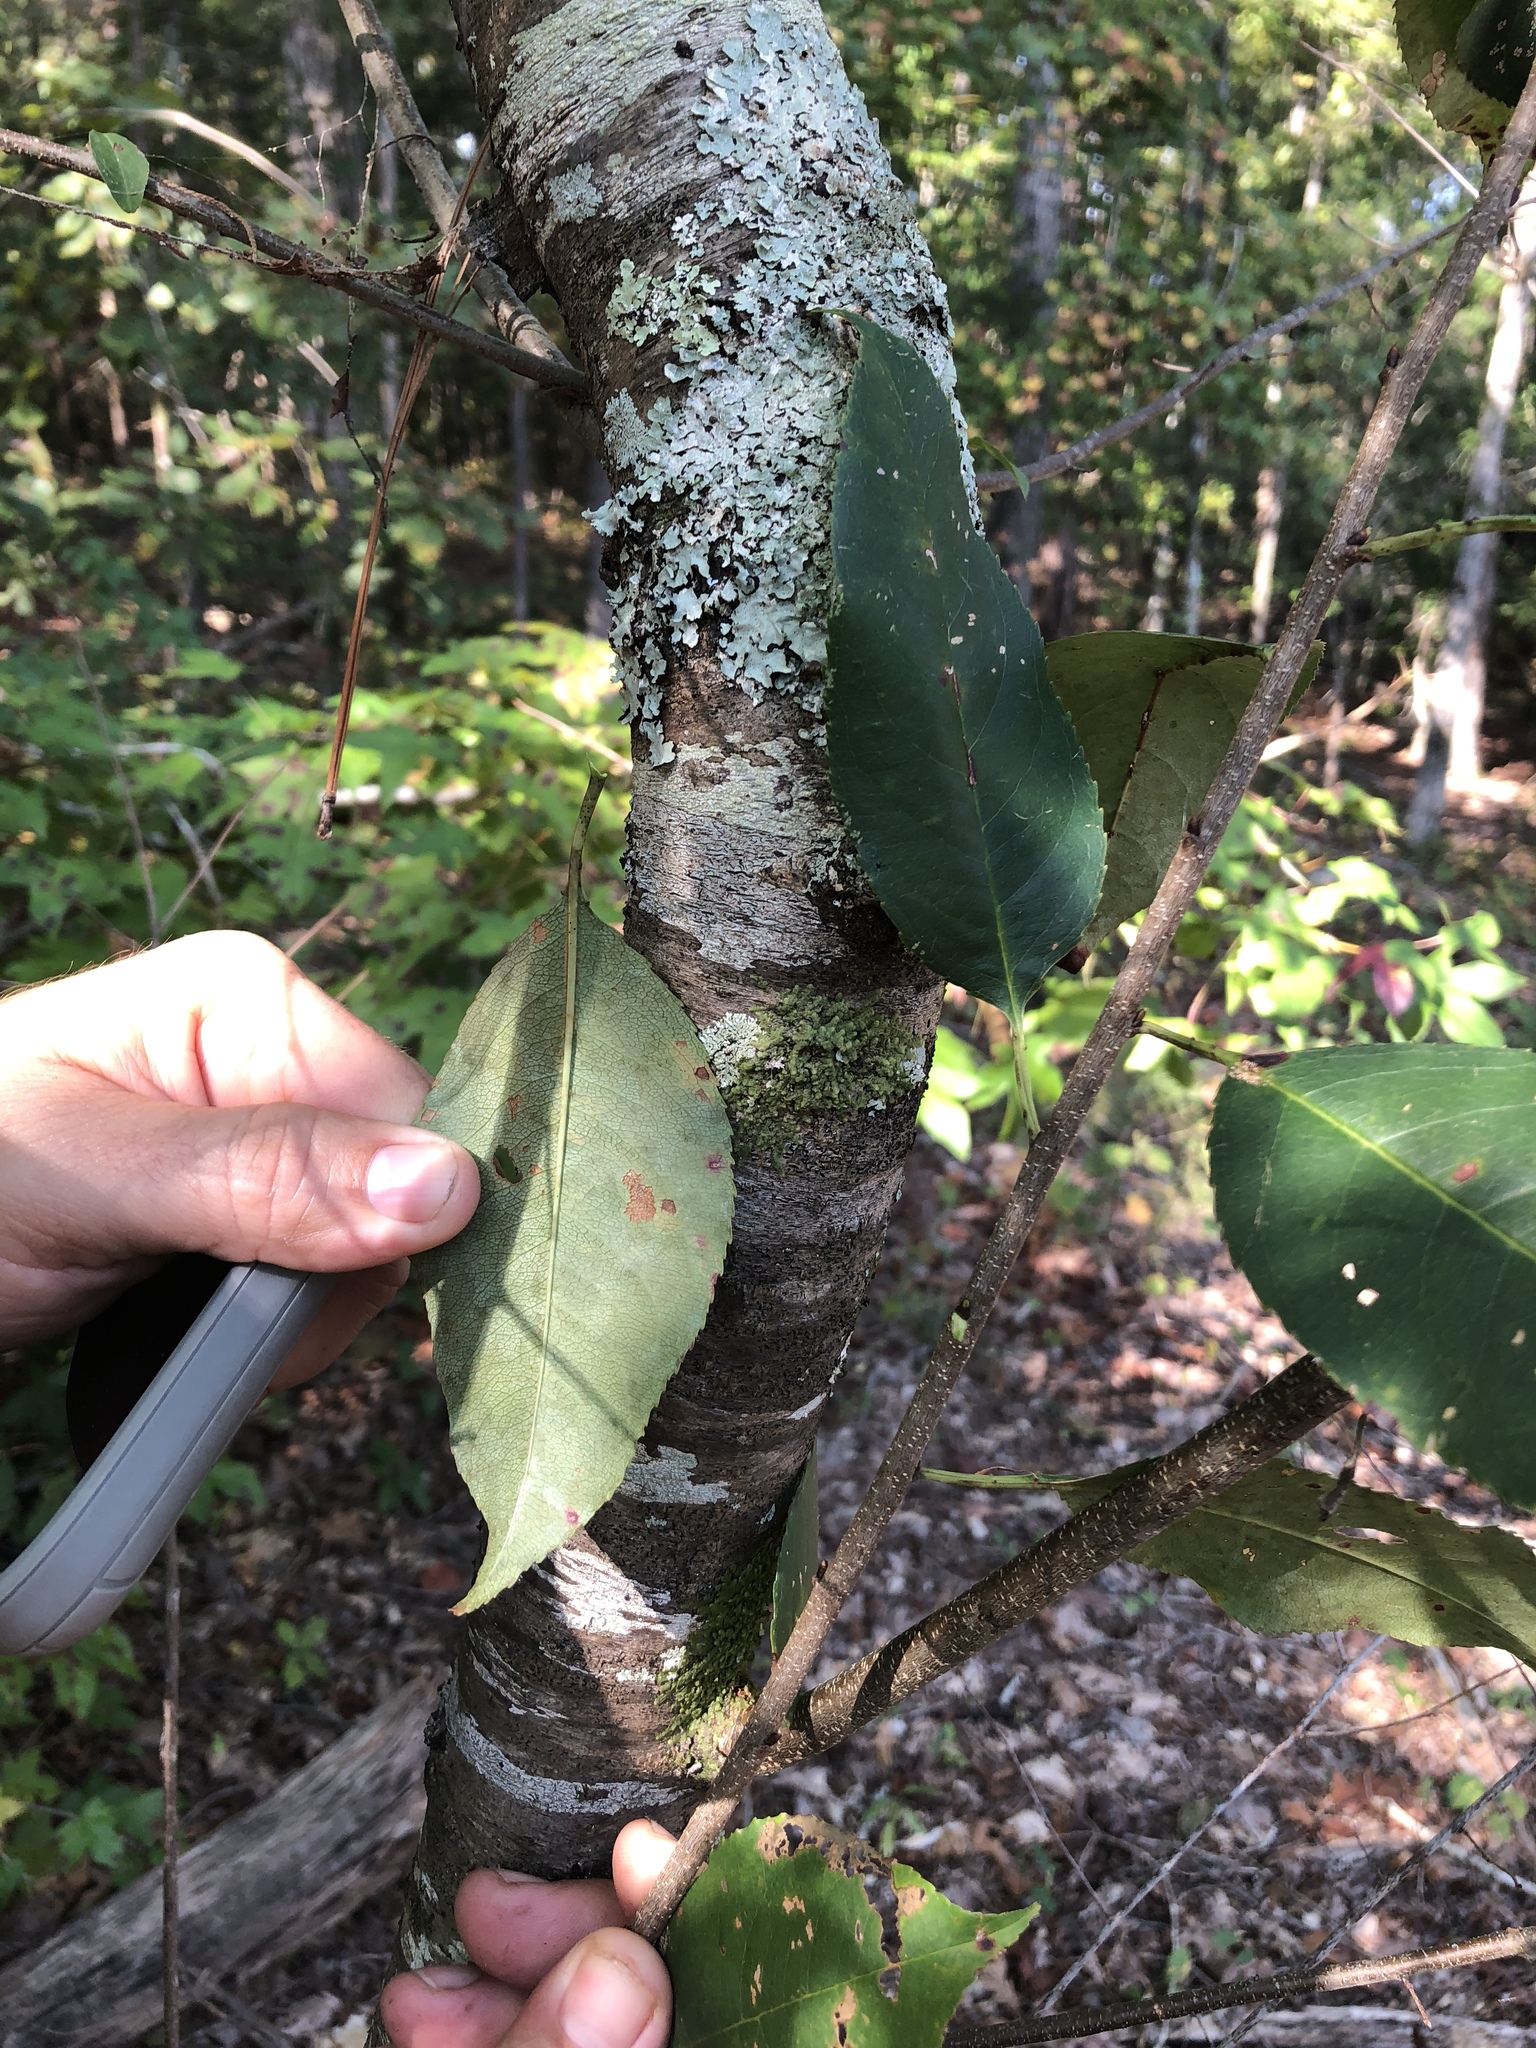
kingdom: Plantae
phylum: Tracheophyta
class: Magnoliopsida
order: Rosales
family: Rosaceae
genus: Prunus
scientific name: Prunus serotina
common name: Black cherry
